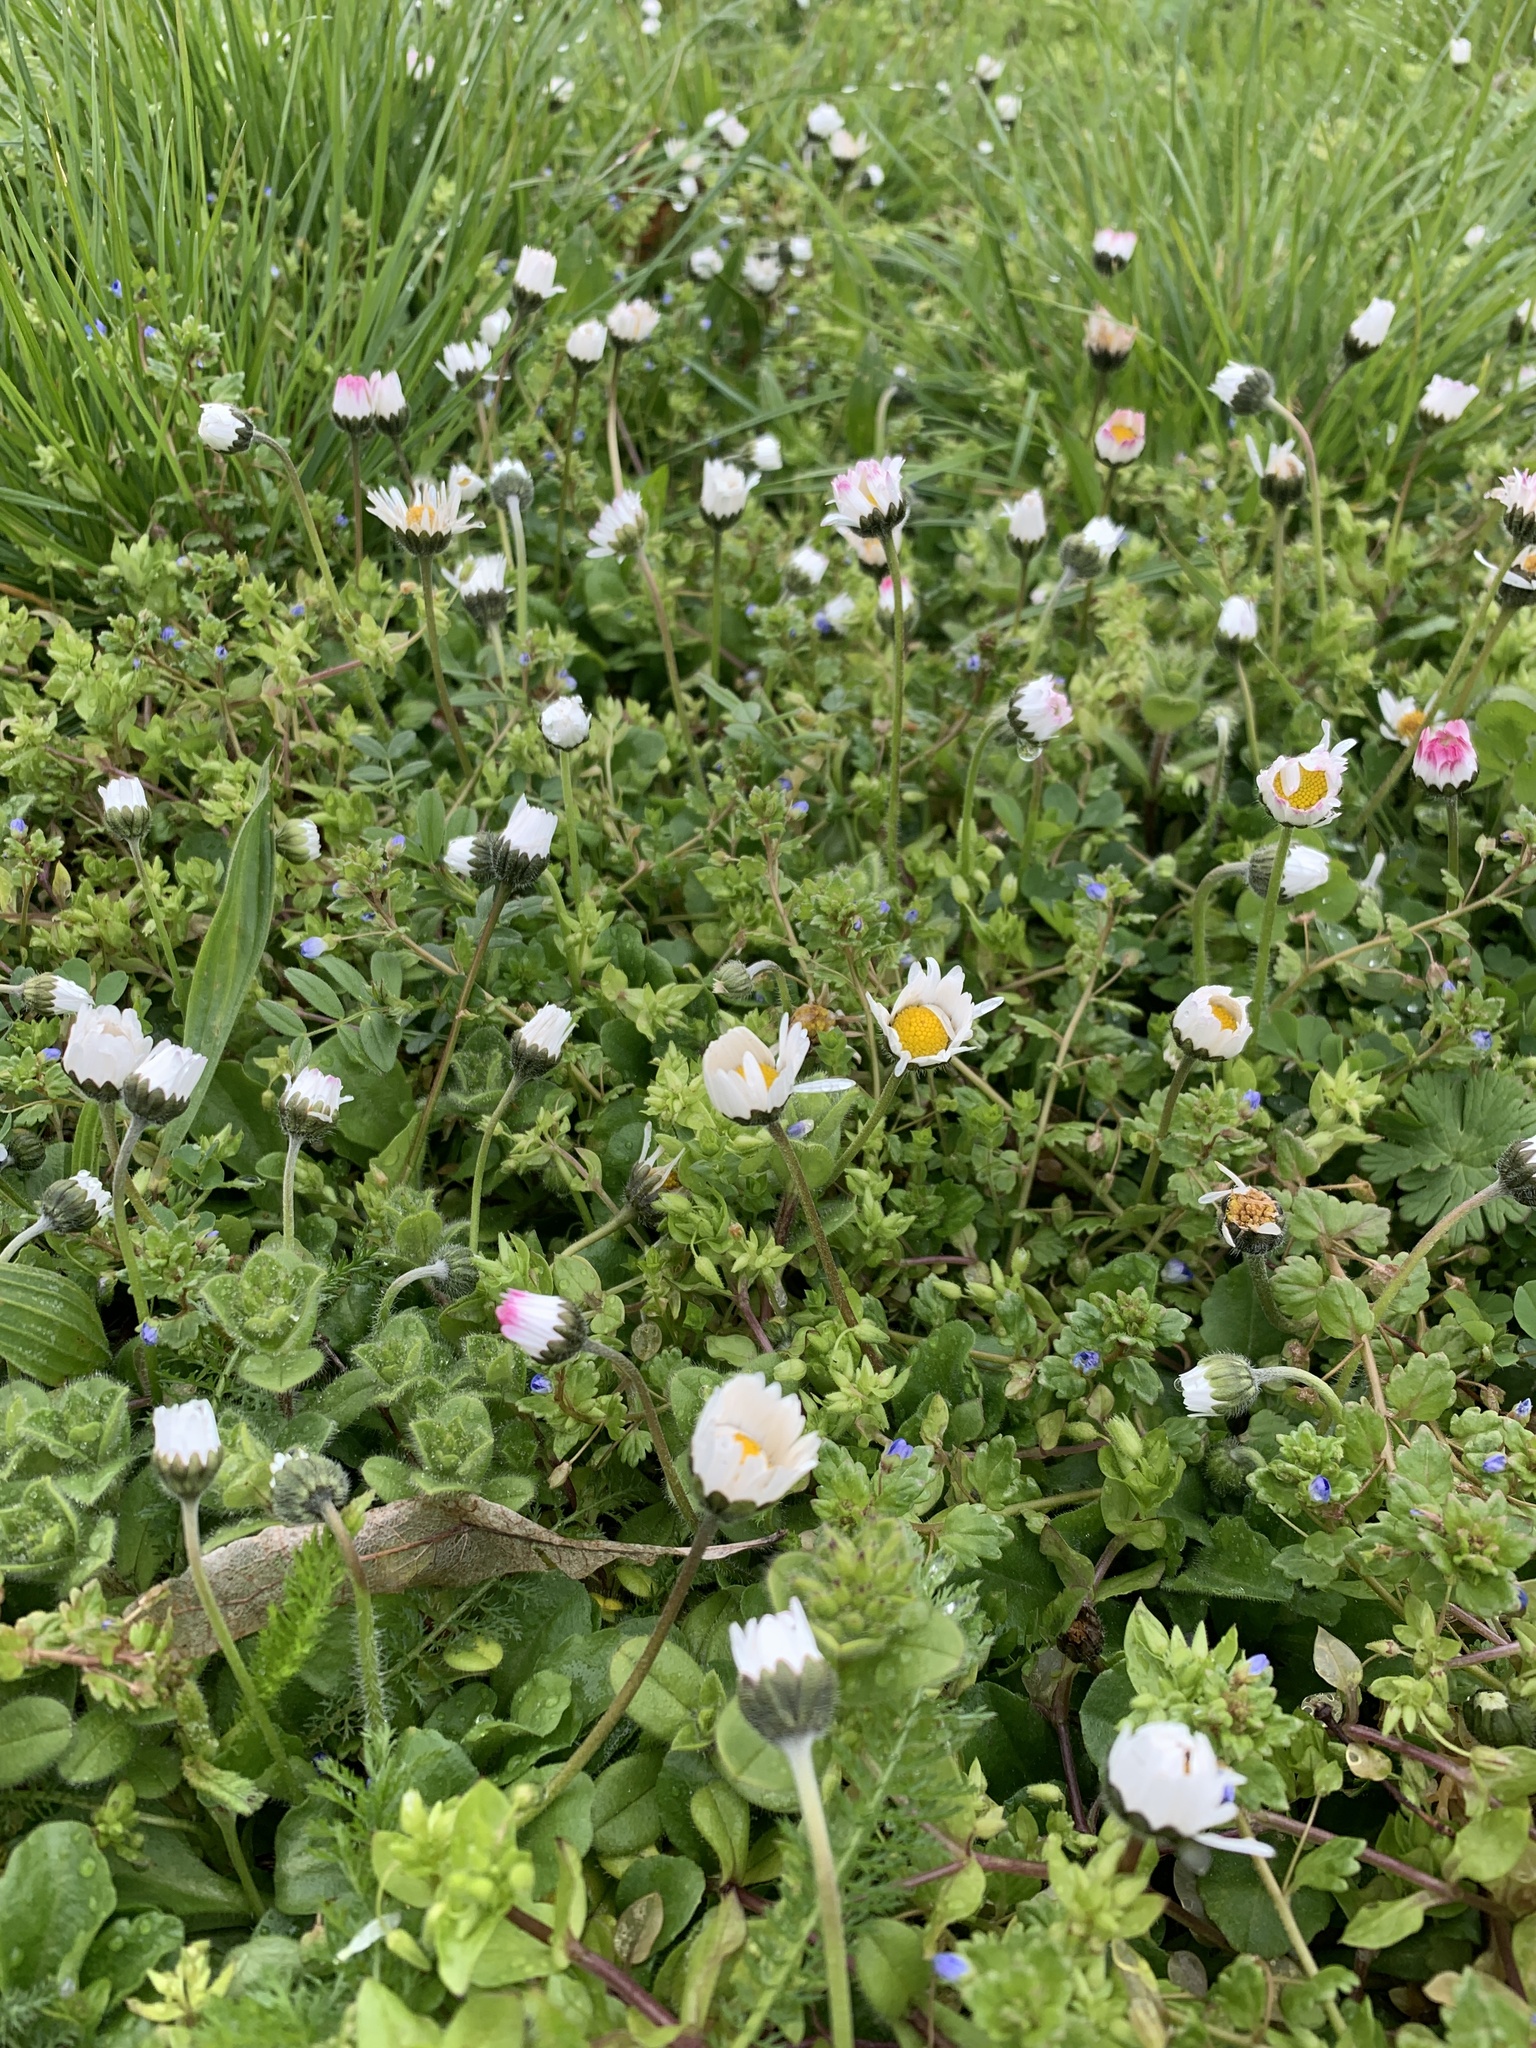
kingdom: Plantae
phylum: Tracheophyta
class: Magnoliopsida
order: Asterales
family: Asteraceae
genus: Bellis
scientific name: Bellis perennis
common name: Lawndaisy
